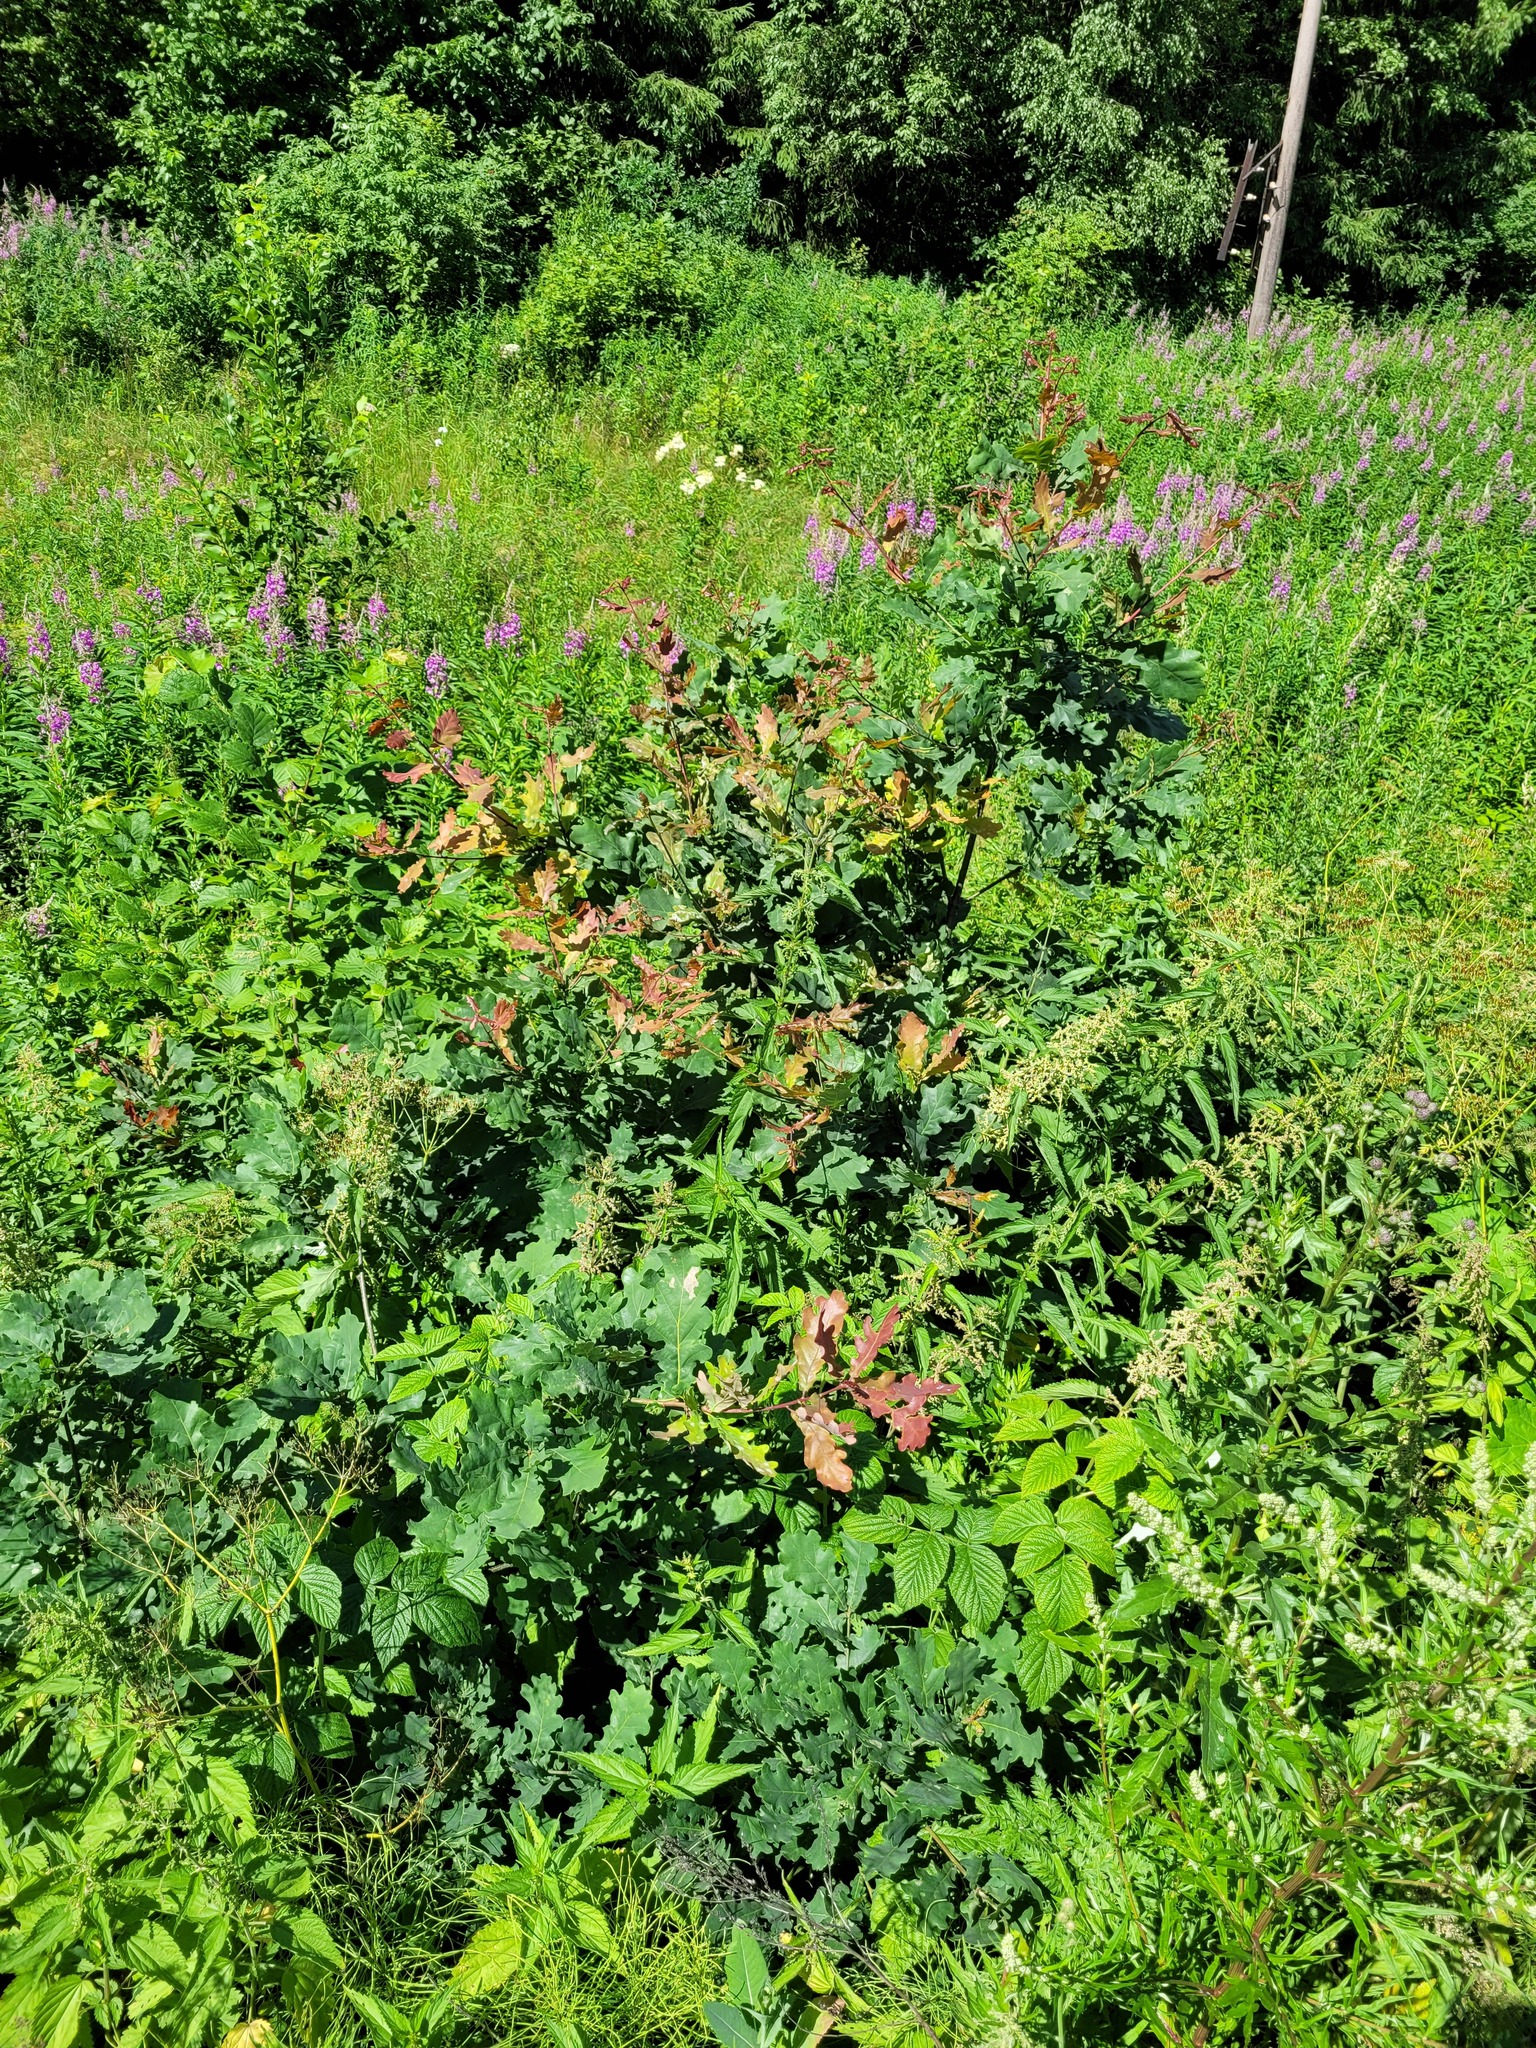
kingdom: Plantae
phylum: Tracheophyta
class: Magnoliopsida
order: Fagales
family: Fagaceae
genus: Quercus
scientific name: Quercus robur
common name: Pedunculate oak
